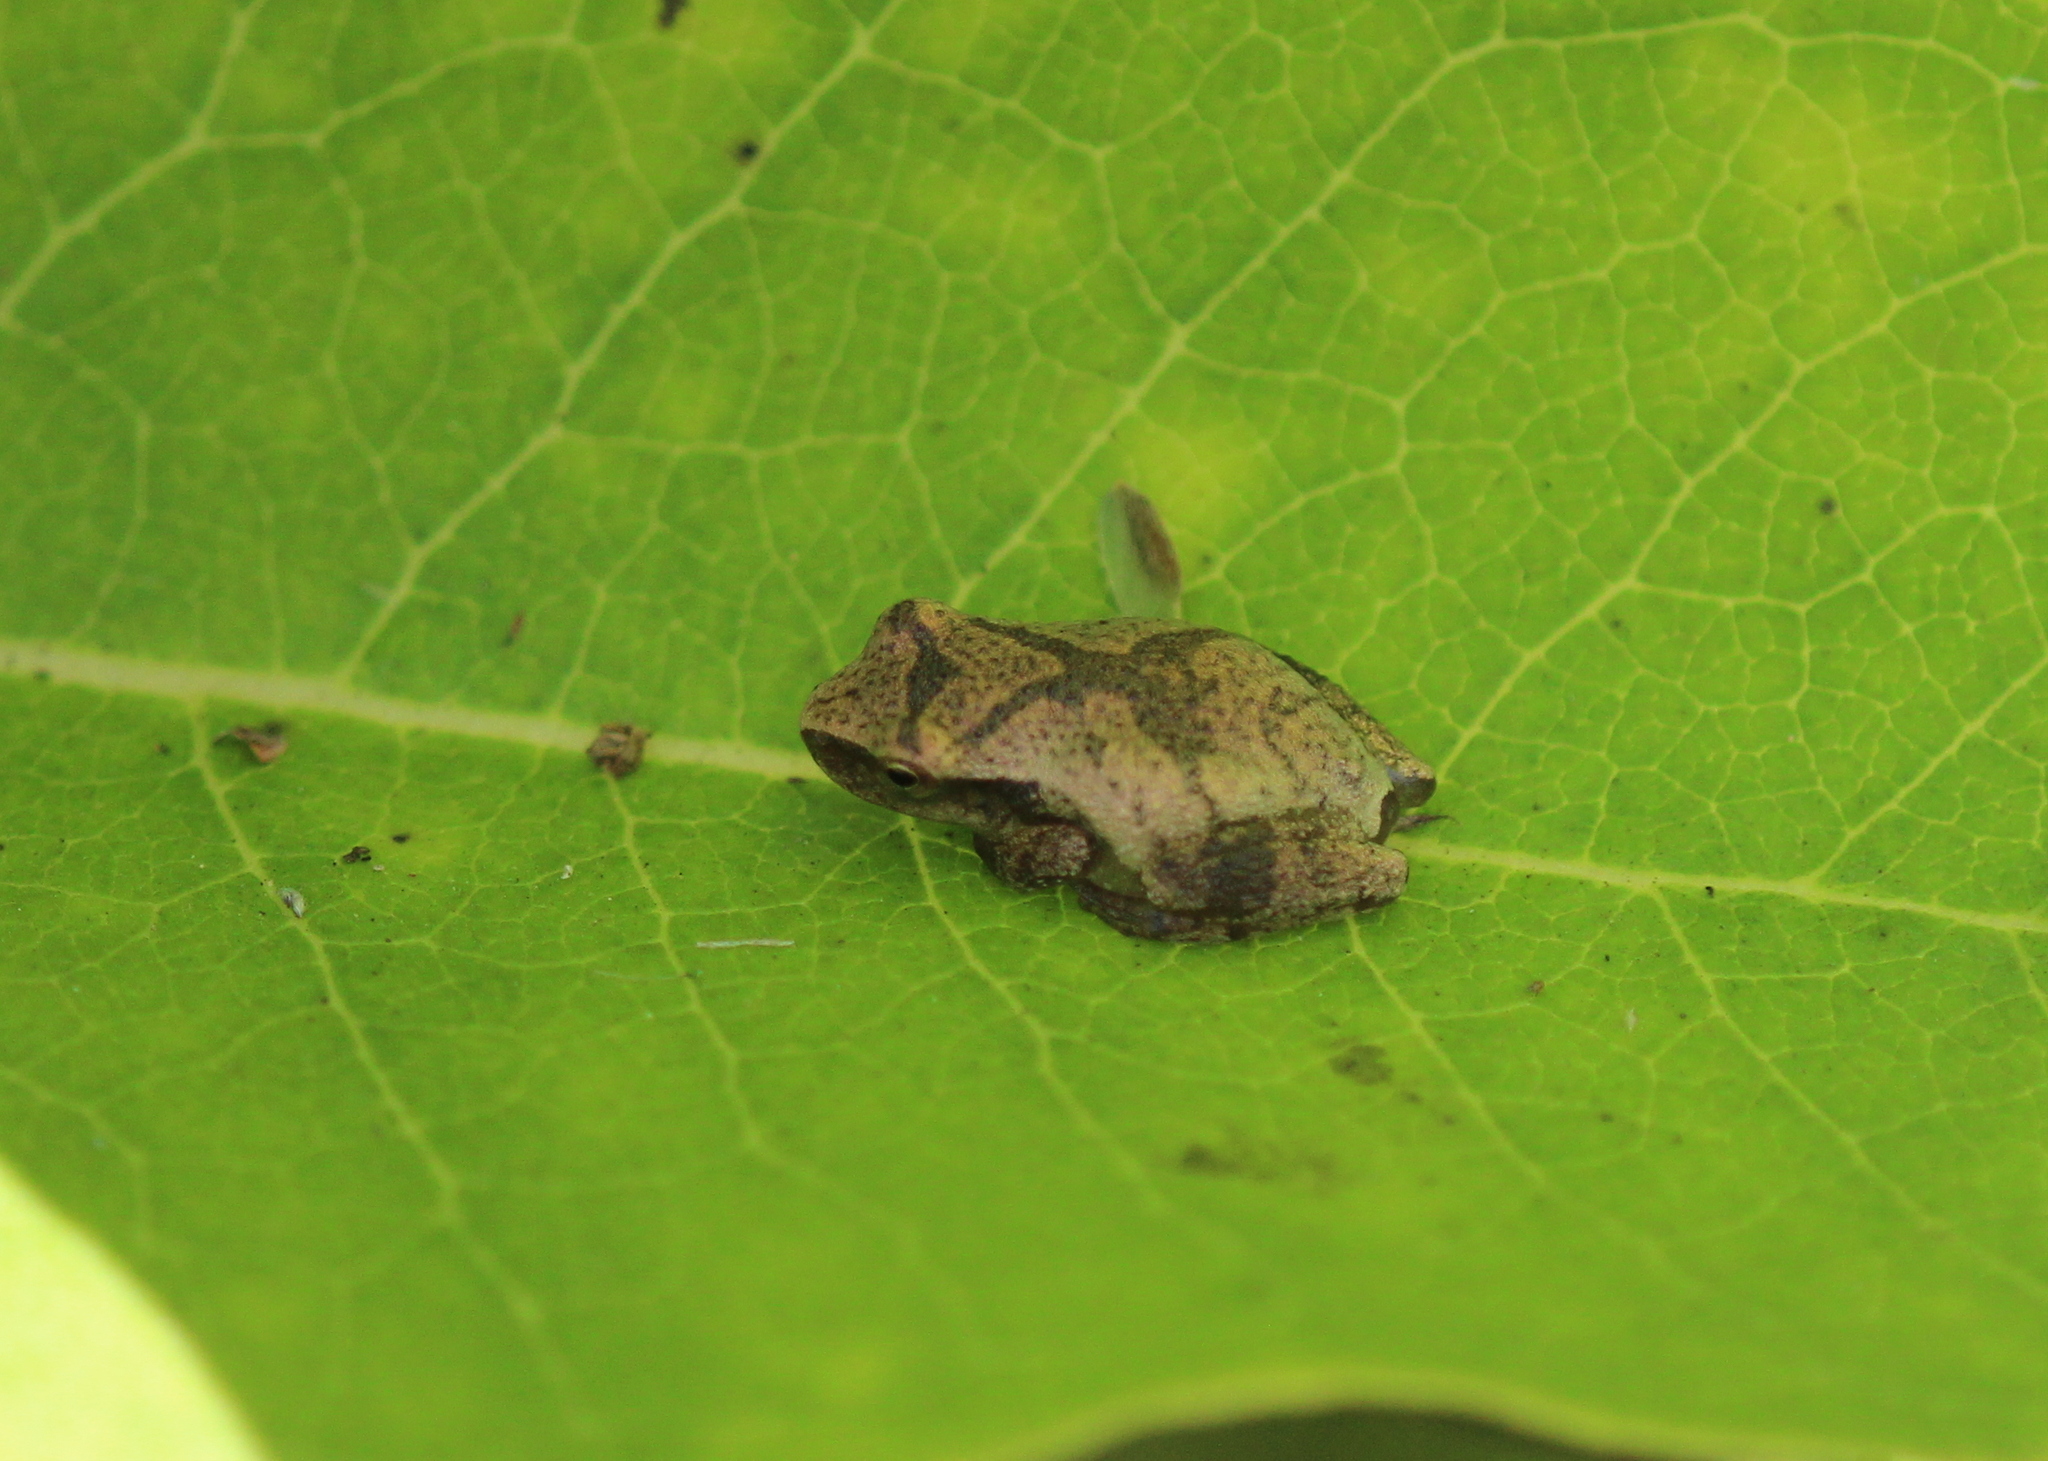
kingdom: Animalia
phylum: Chordata
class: Amphibia
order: Anura
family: Hylidae
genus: Pseudacris
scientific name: Pseudacris crucifer
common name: Spring peeper
